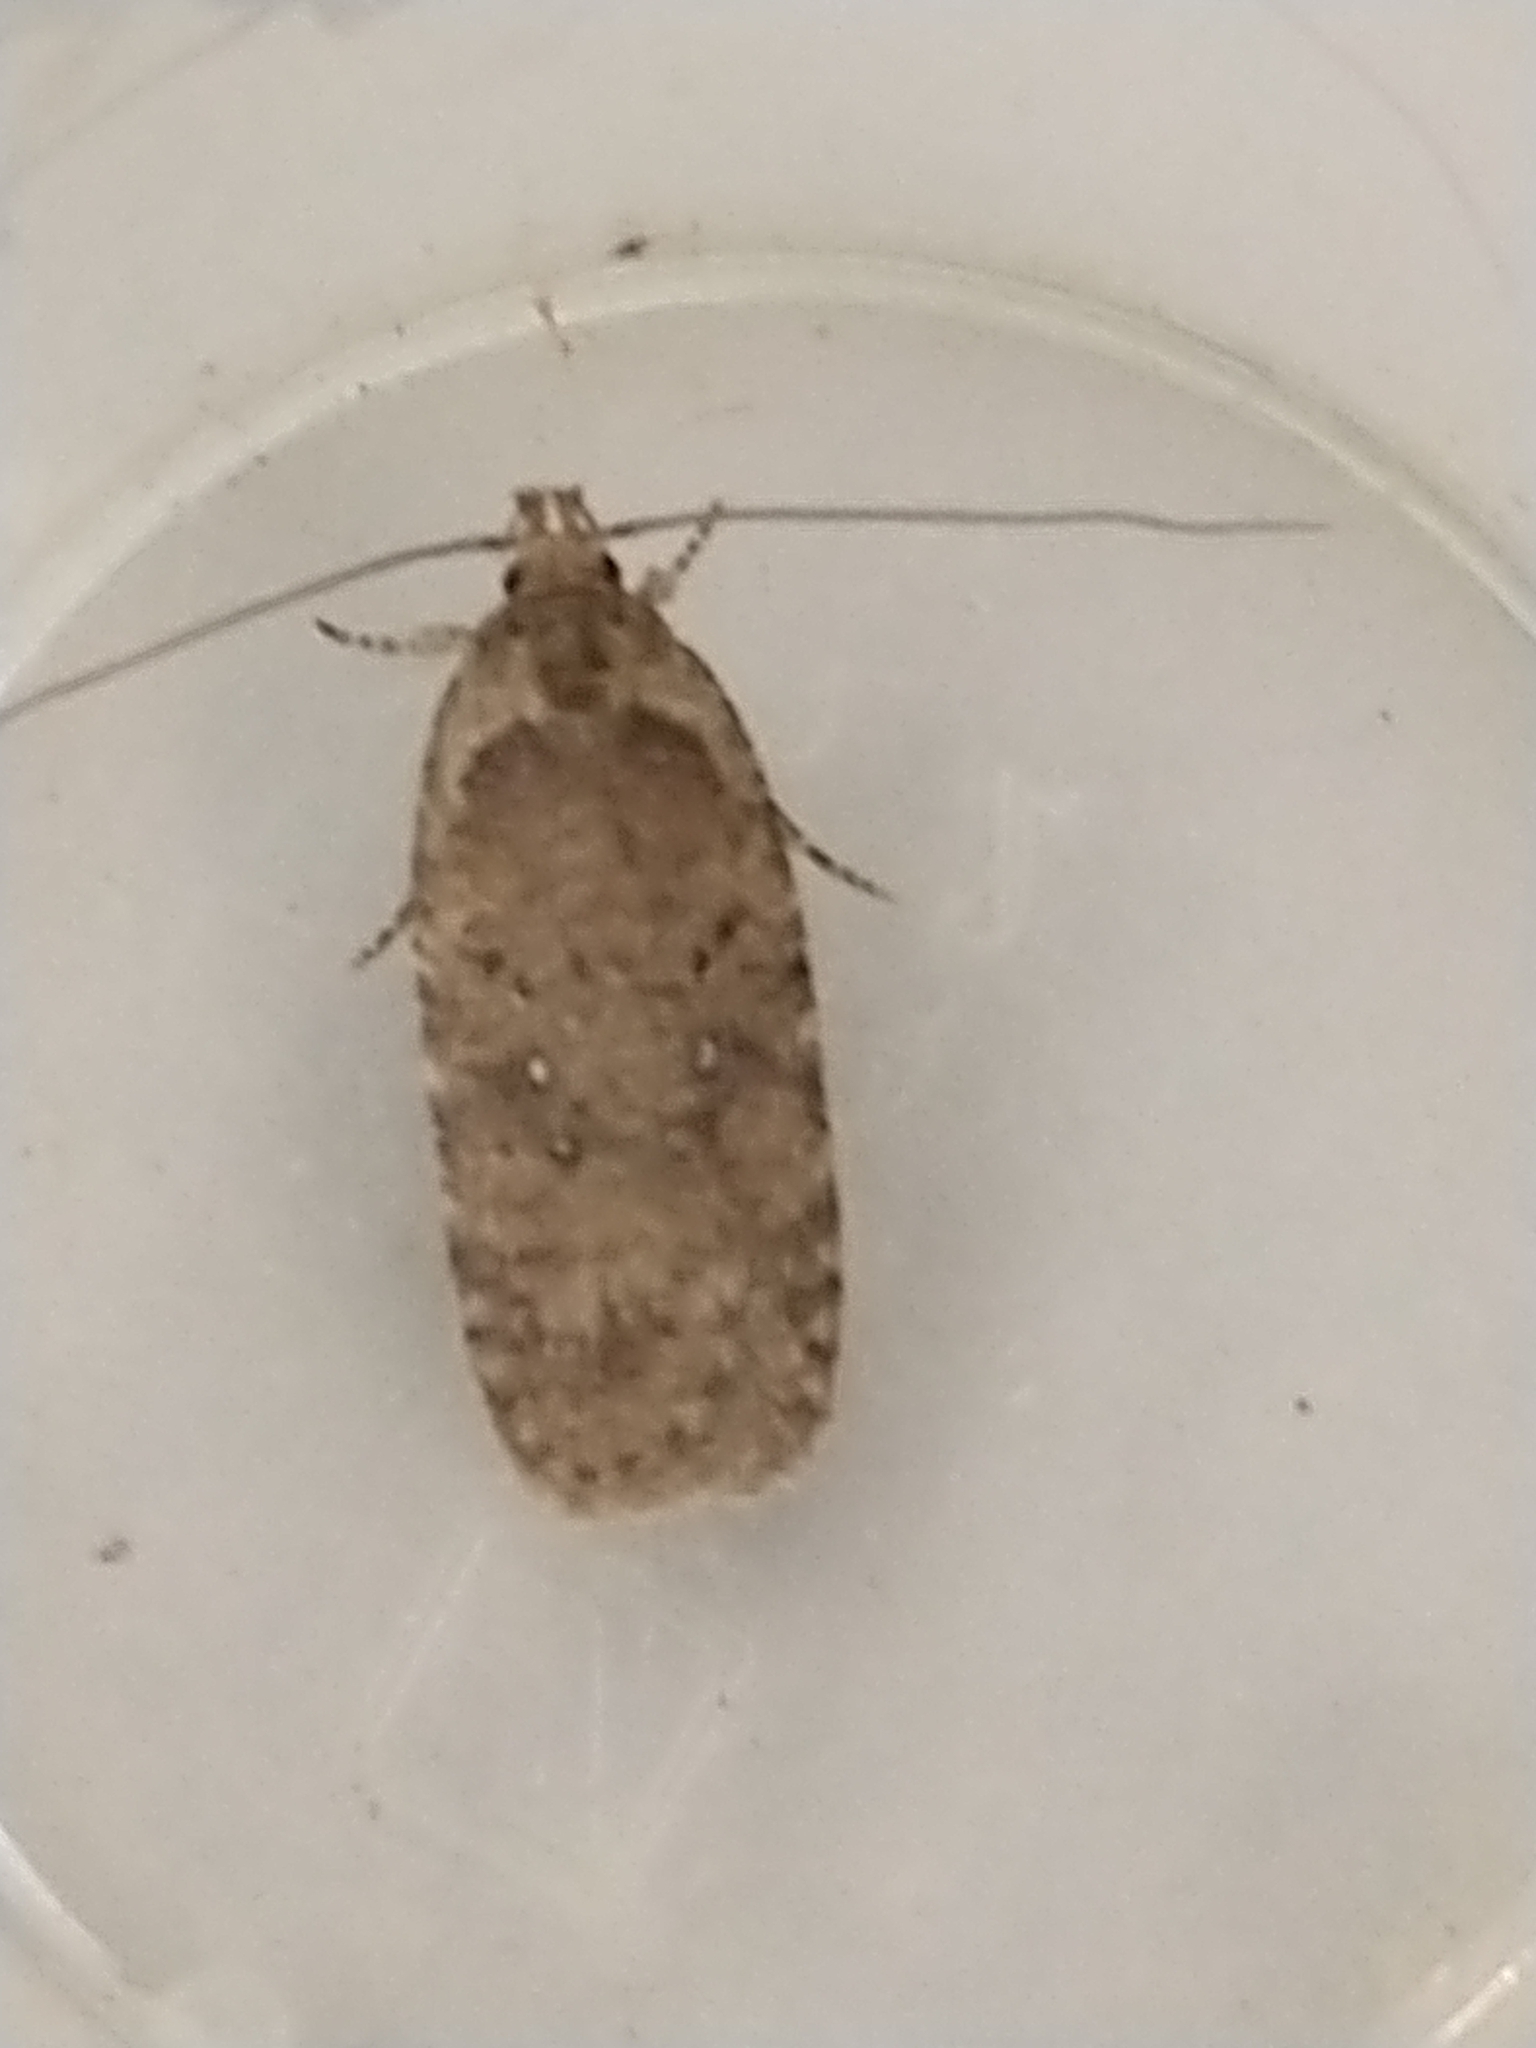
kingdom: Animalia
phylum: Arthropoda
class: Insecta
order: Lepidoptera
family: Depressariidae
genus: Agonopterix
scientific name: Agonopterix heracliana
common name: Common flat-body
